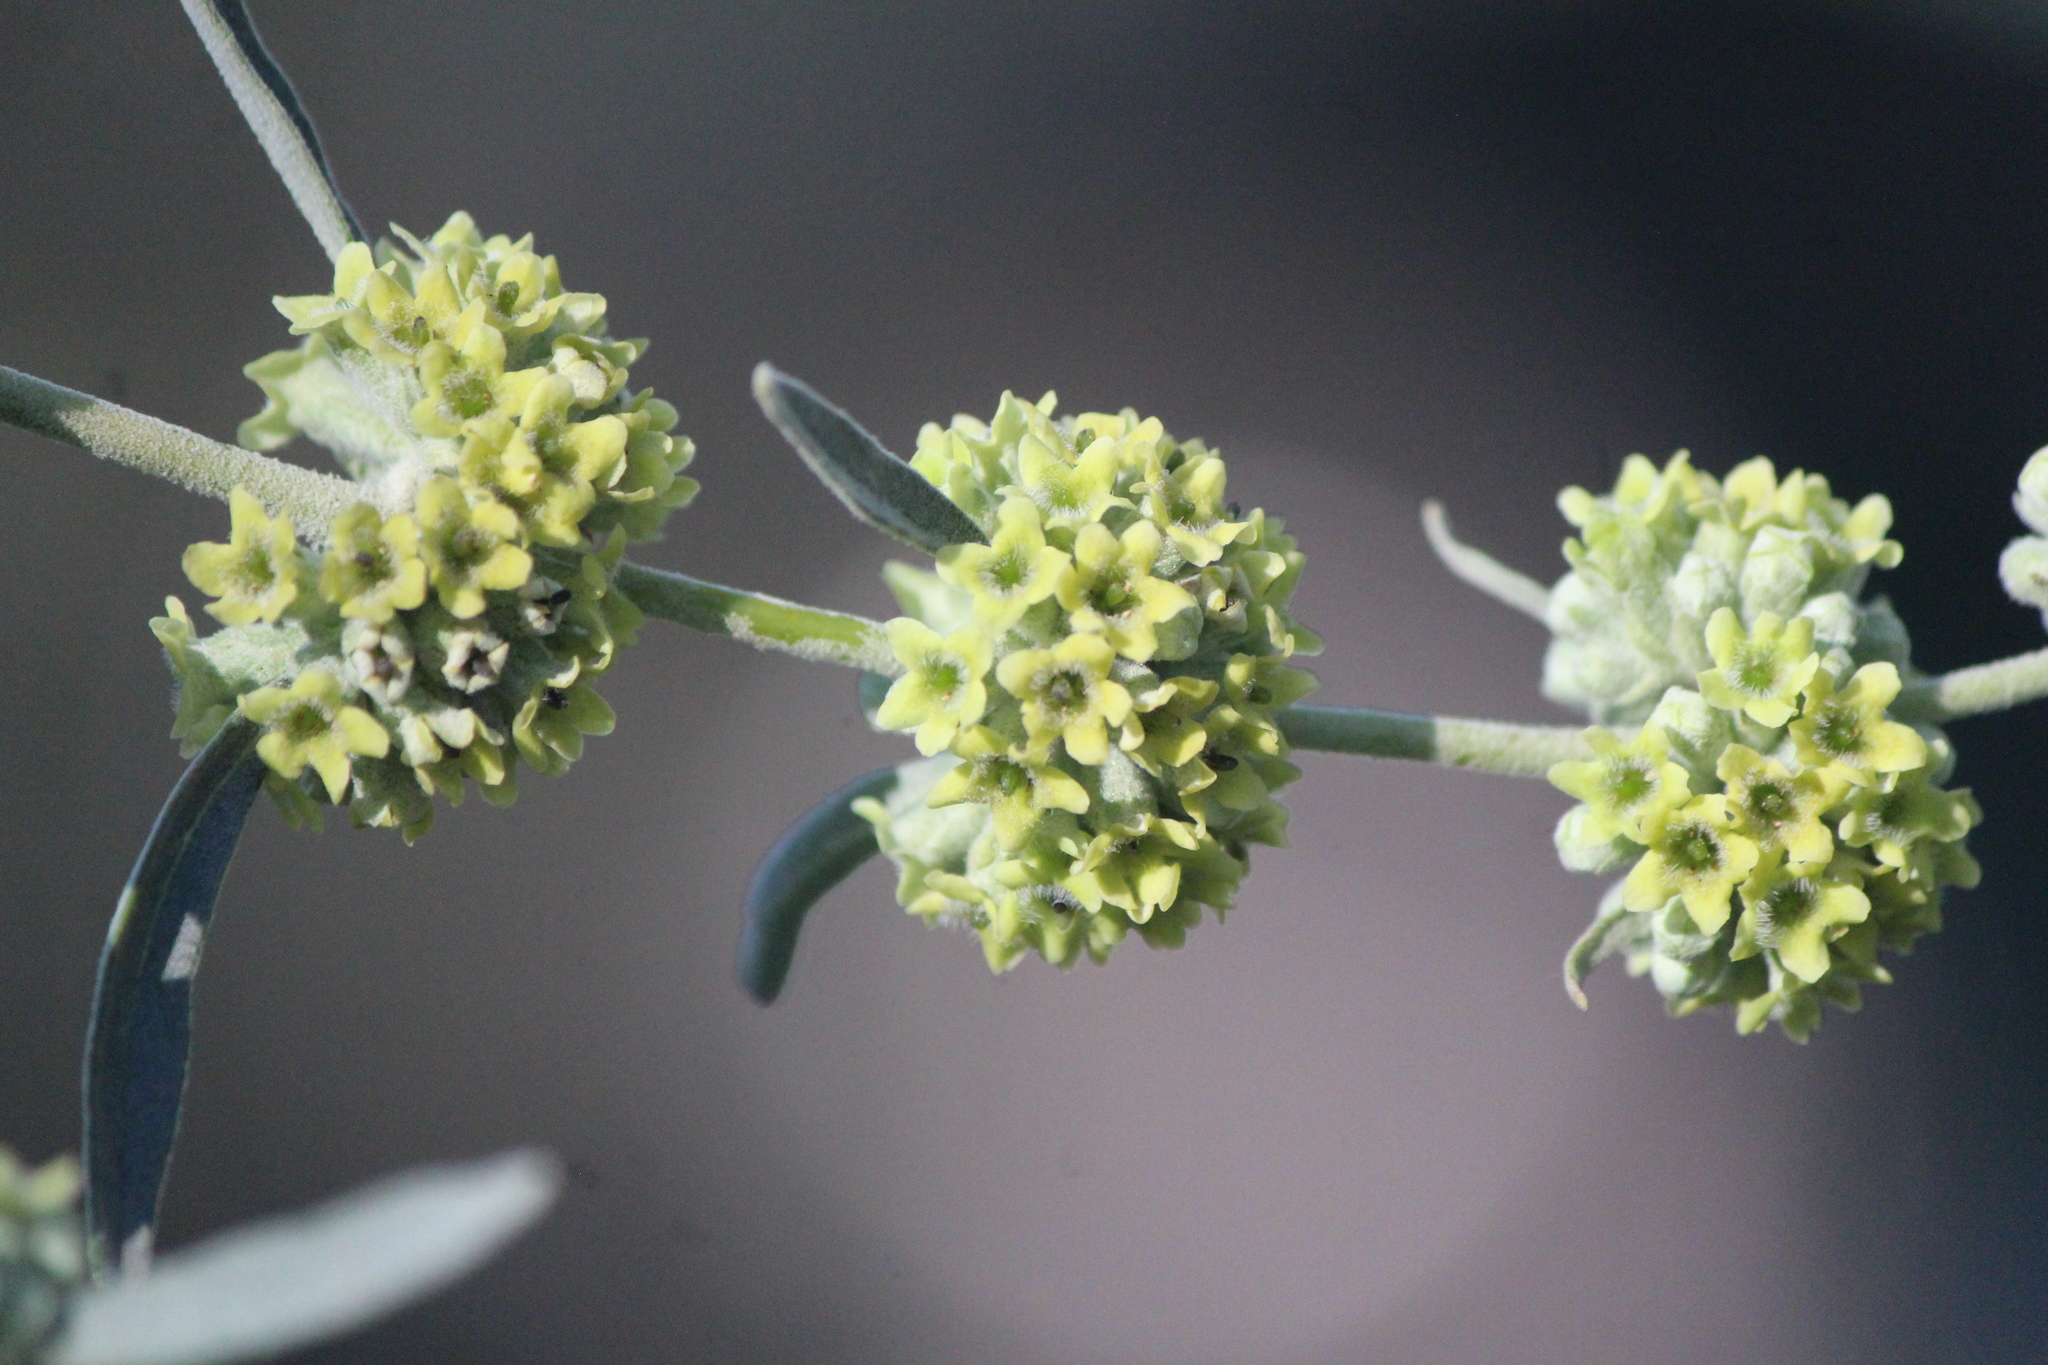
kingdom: Plantae
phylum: Tracheophyta
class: Magnoliopsida
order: Lamiales
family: Scrophulariaceae
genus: Buddleja
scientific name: Buddleja sessiliflora
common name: Rio grande butterfly-bush
